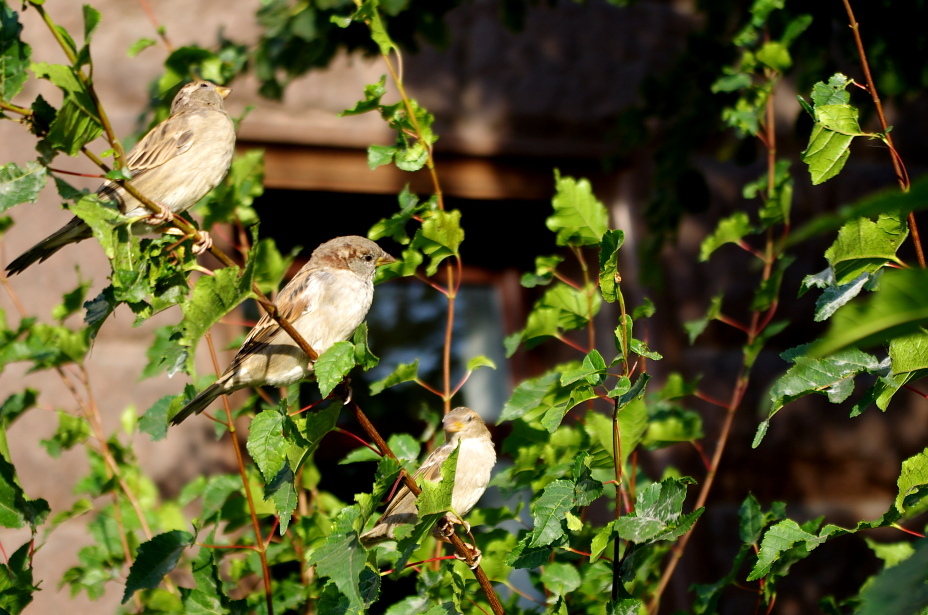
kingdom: Animalia
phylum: Chordata
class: Aves
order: Passeriformes
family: Passeridae
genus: Passer
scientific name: Passer domesticus
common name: House sparrow
